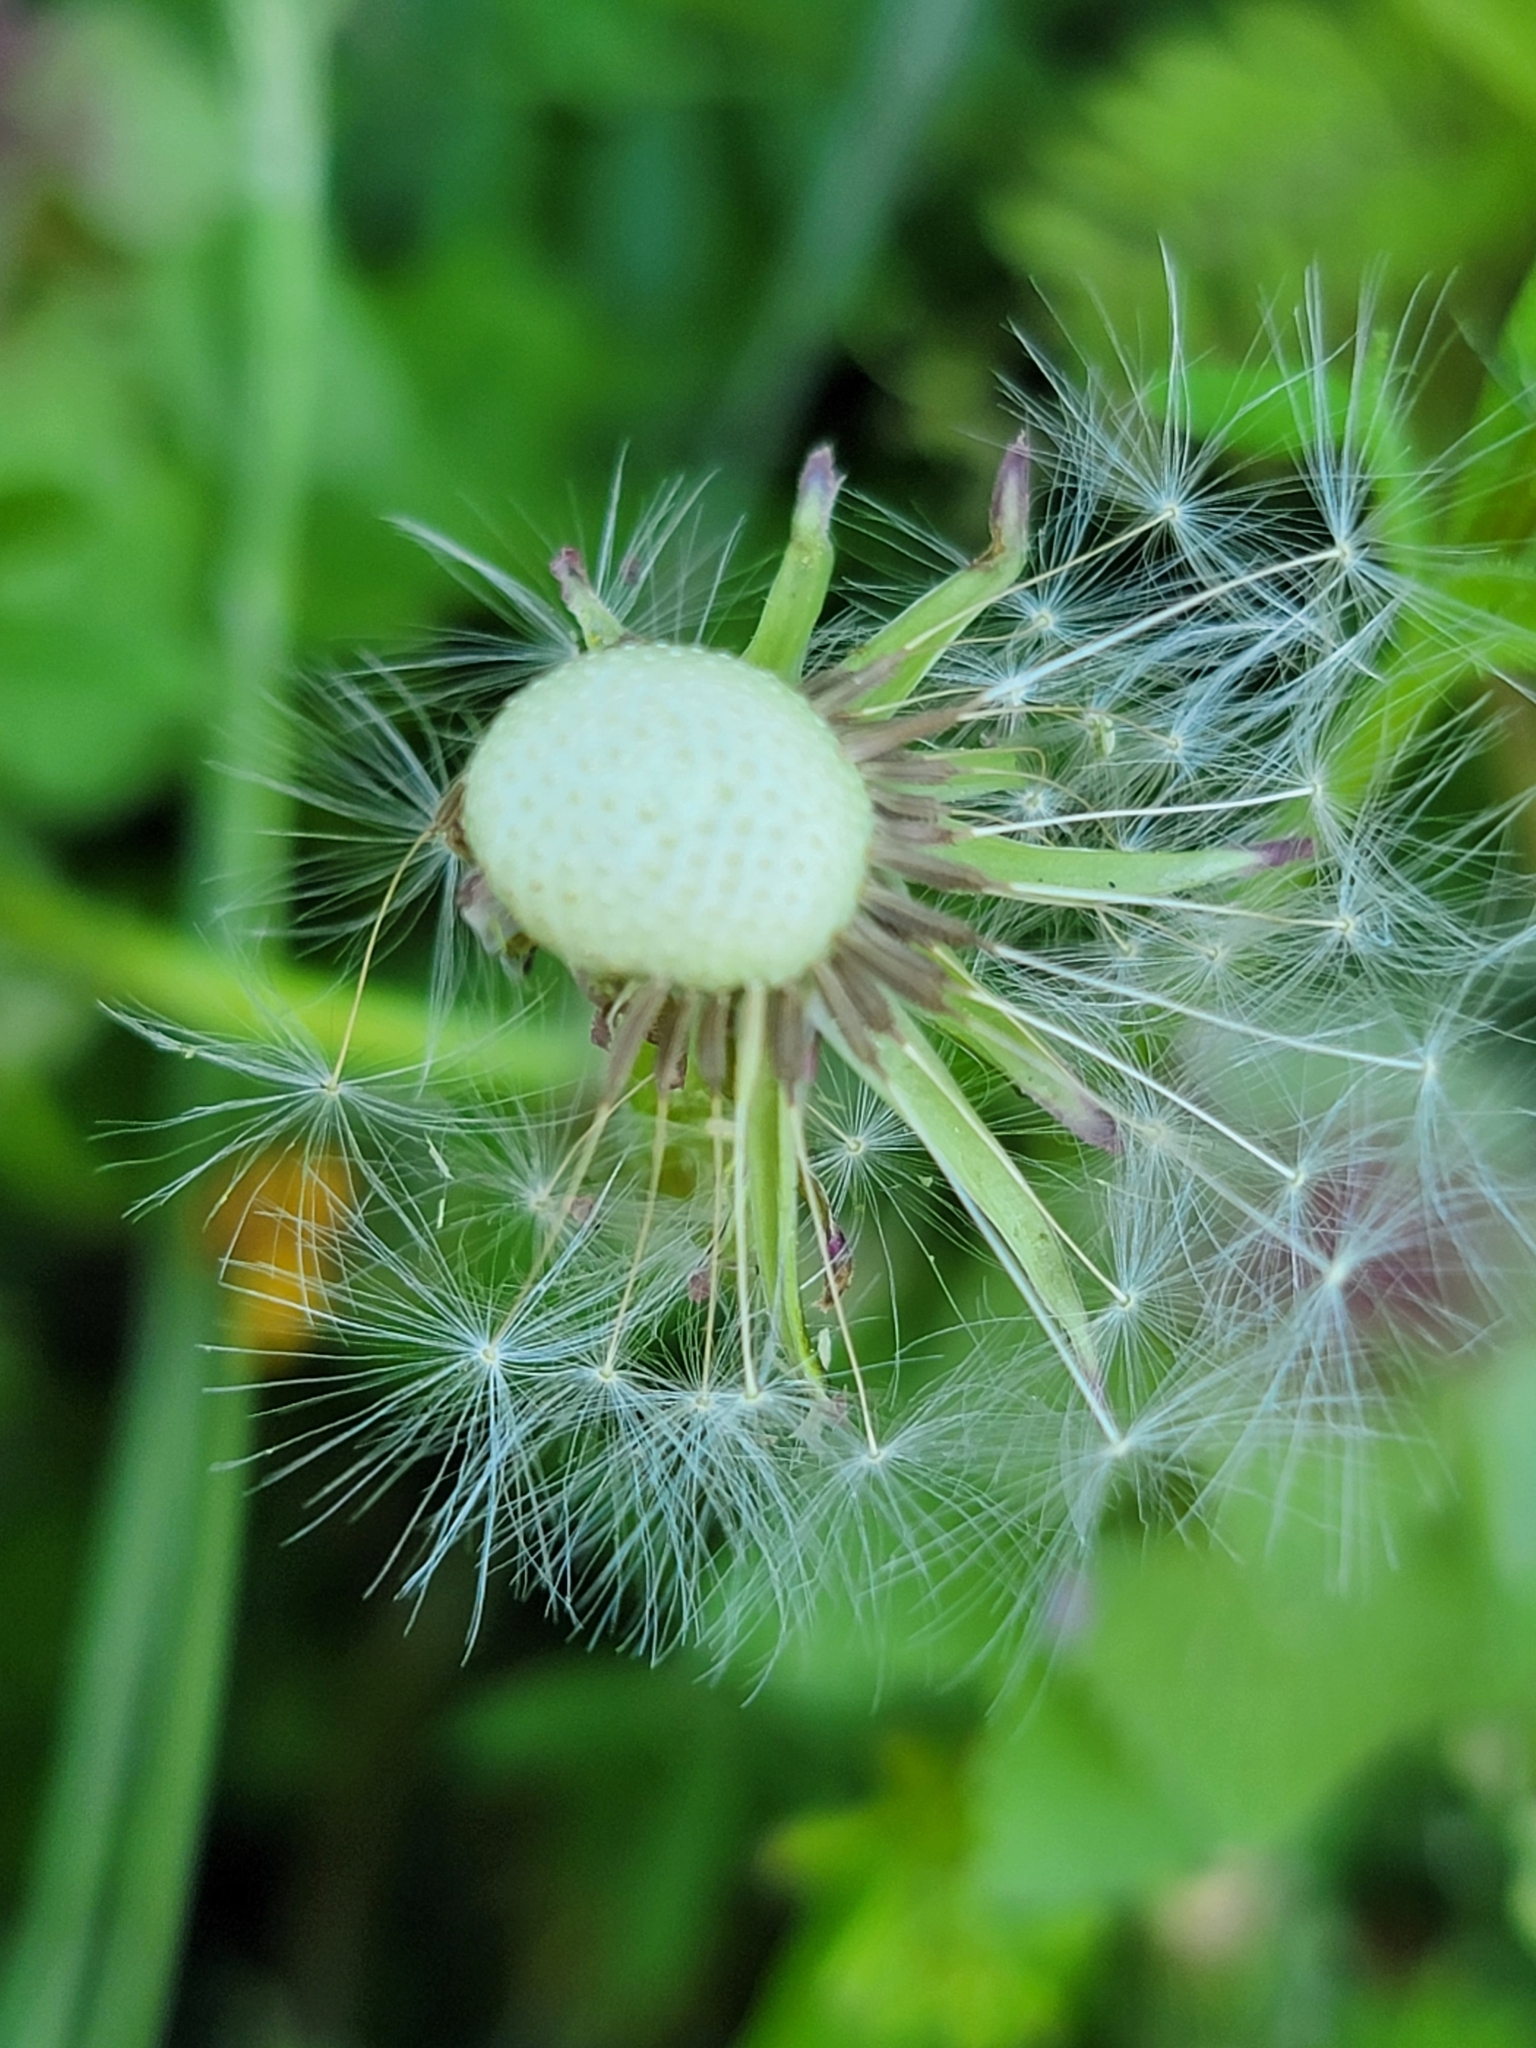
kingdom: Plantae
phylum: Tracheophyta
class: Magnoliopsida
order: Asterales
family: Asteraceae
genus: Taraxacum
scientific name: Taraxacum officinale
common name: Common dandelion
